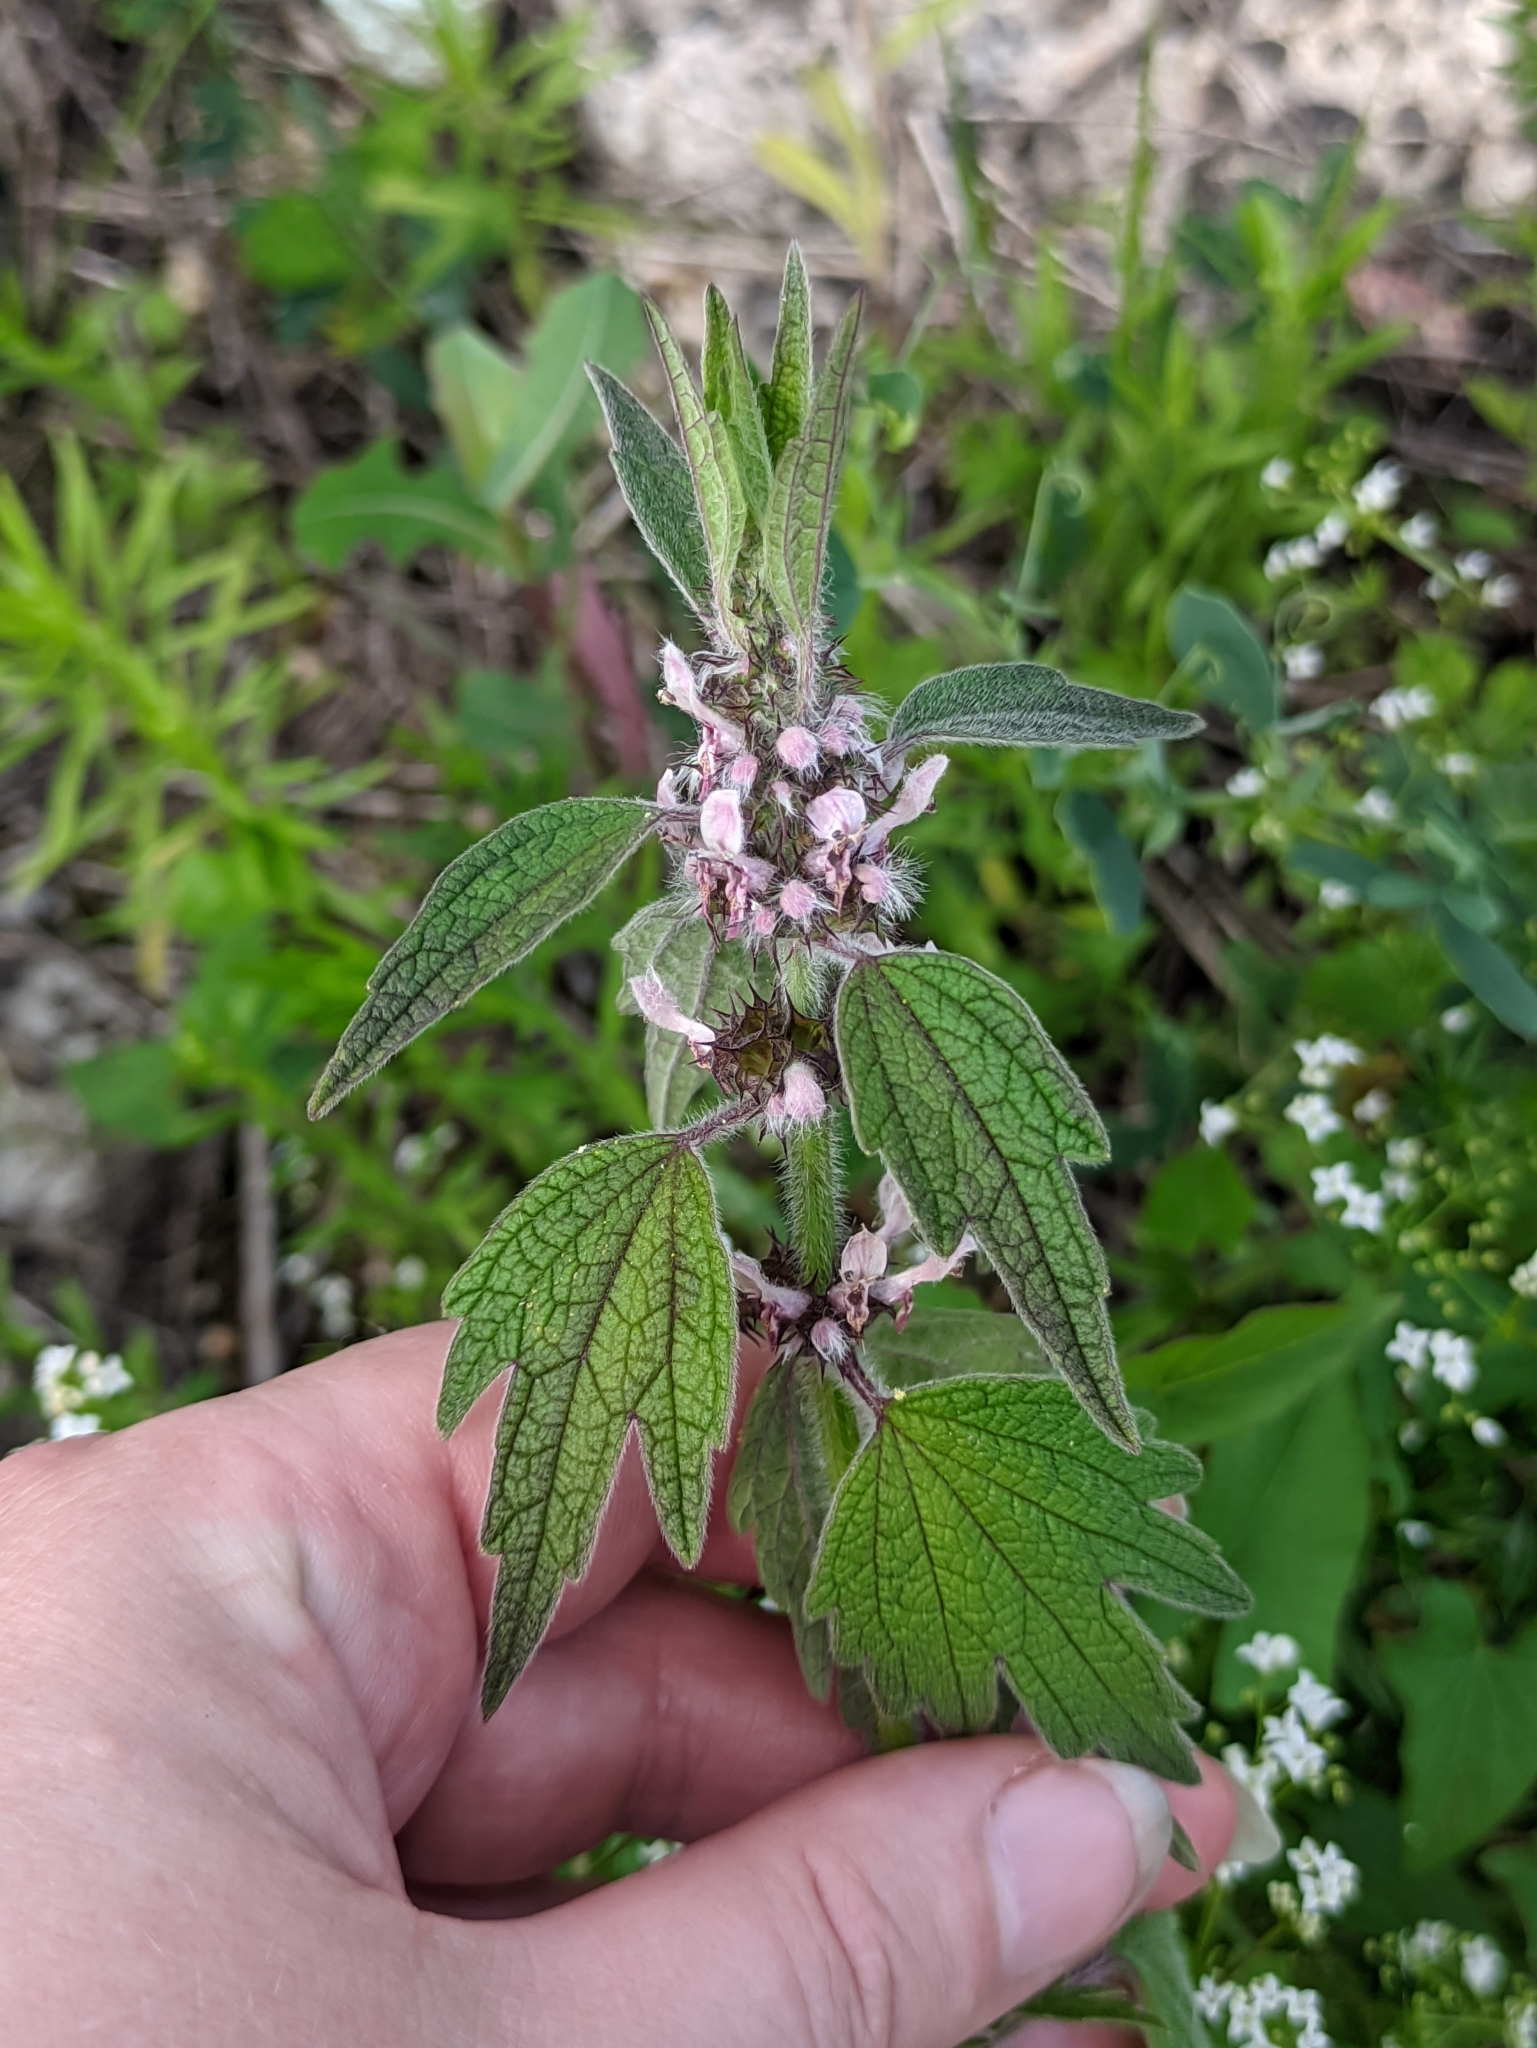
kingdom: Plantae
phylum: Tracheophyta
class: Magnoliopsida
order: Lamiales
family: Lamiaceae
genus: Leonurus
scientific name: Leonurus quinquelobatus
